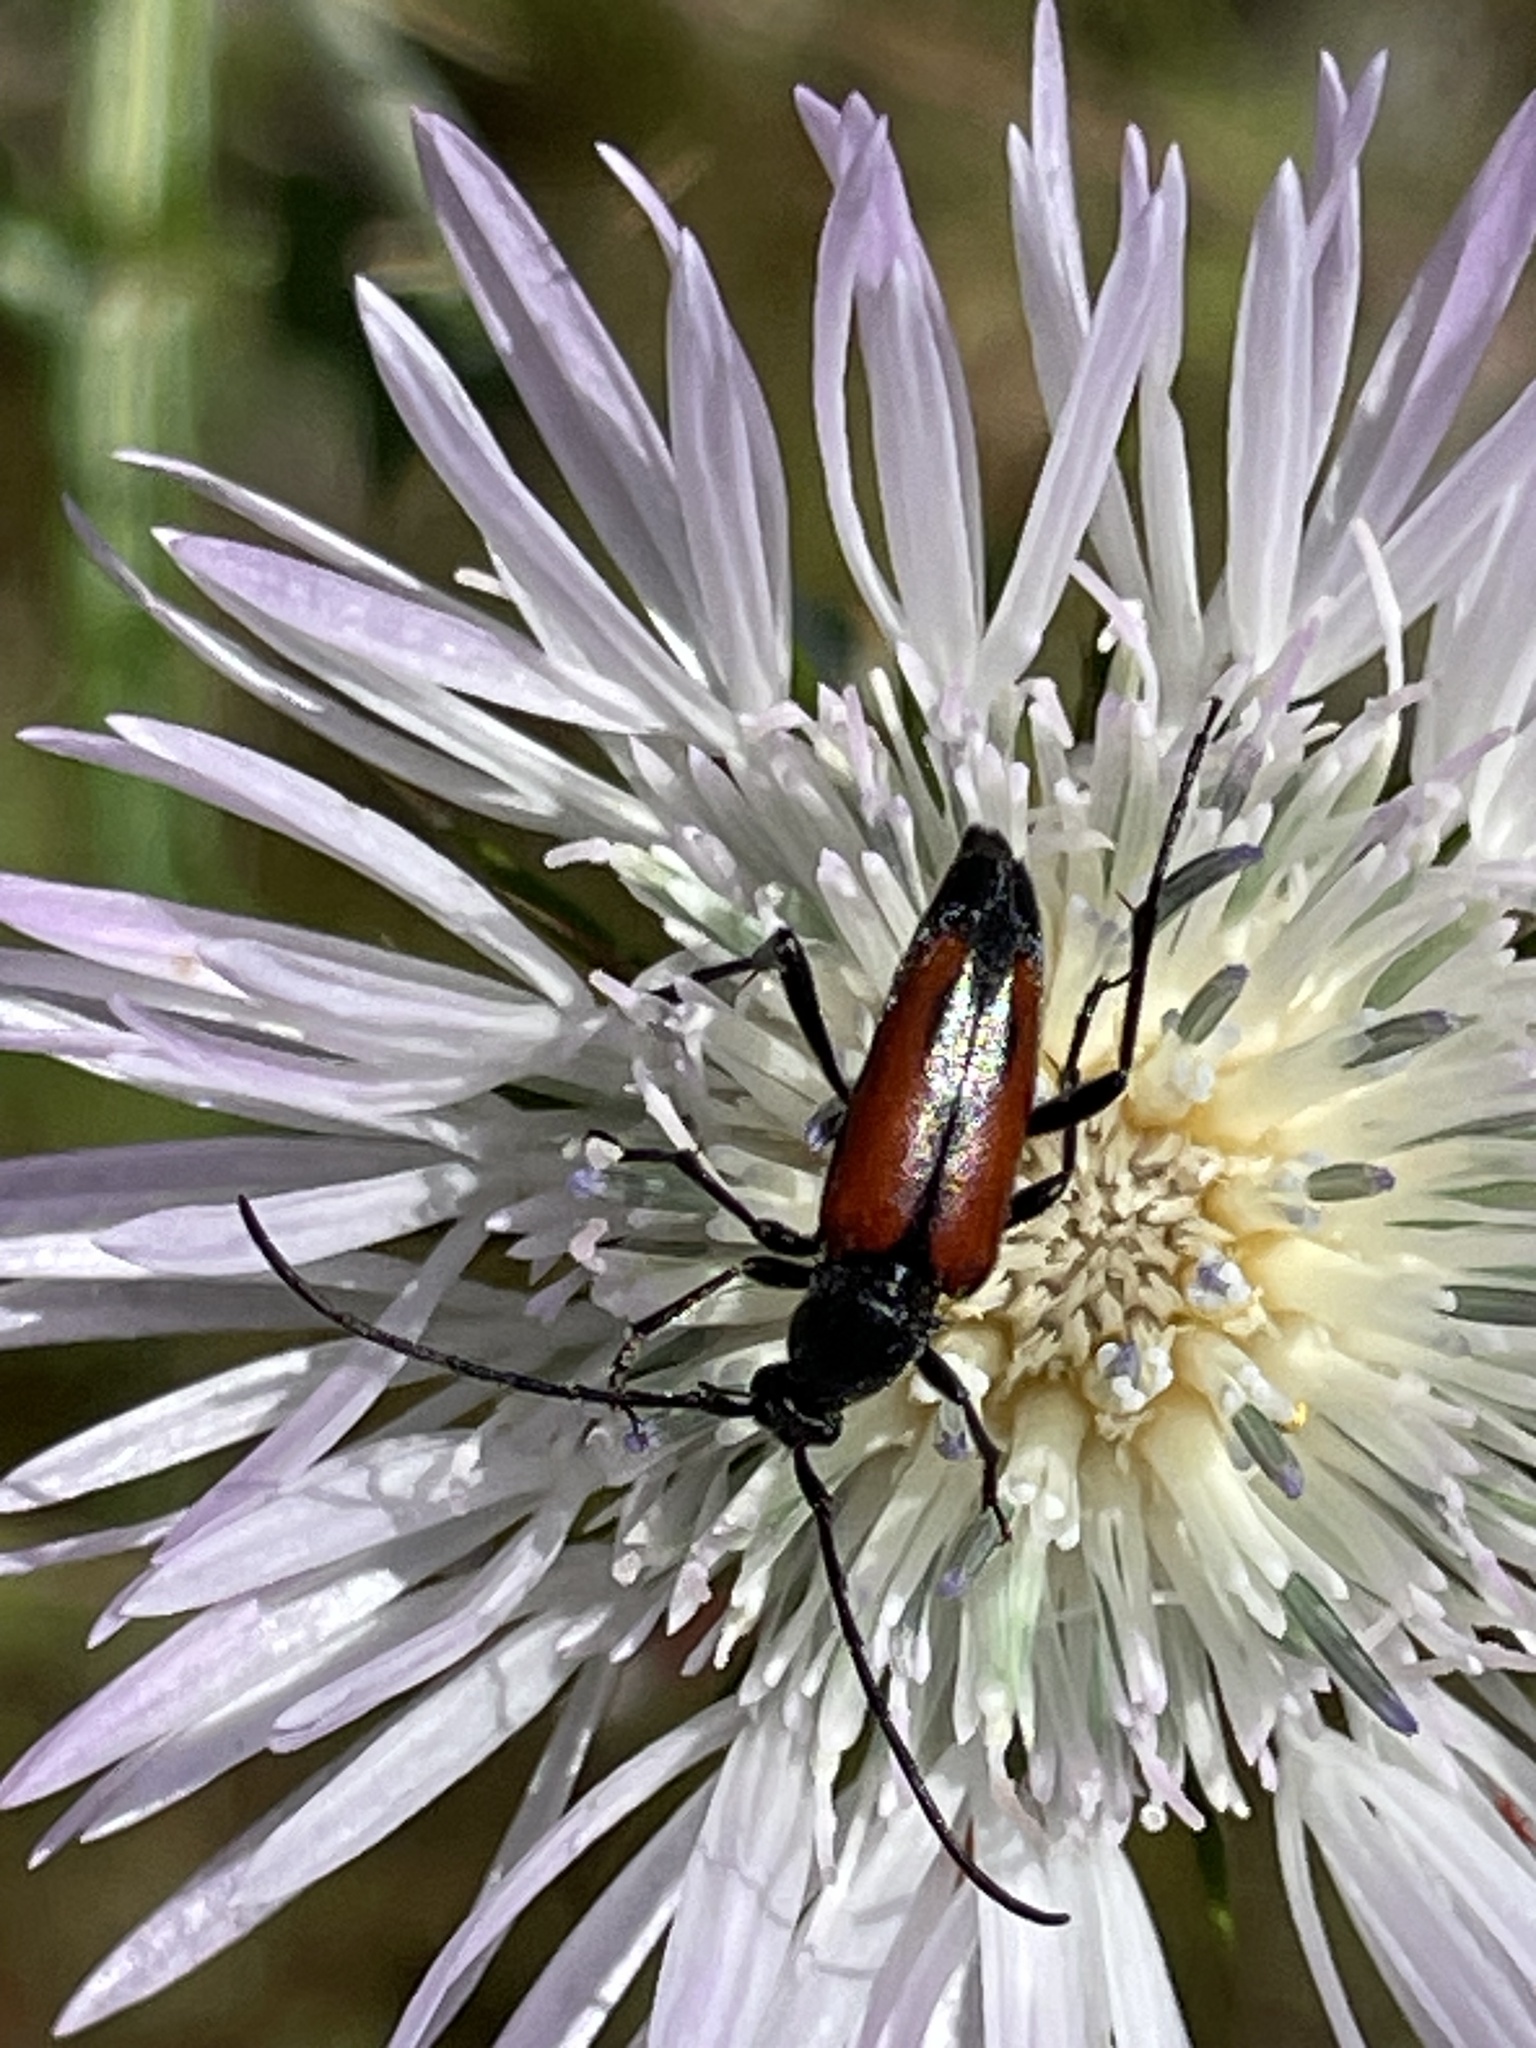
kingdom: Animalia
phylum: Arthropoda
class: Insecta
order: Coleoptera
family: Cerambycidae
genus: Stenurella
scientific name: Stenurella bifasciata
